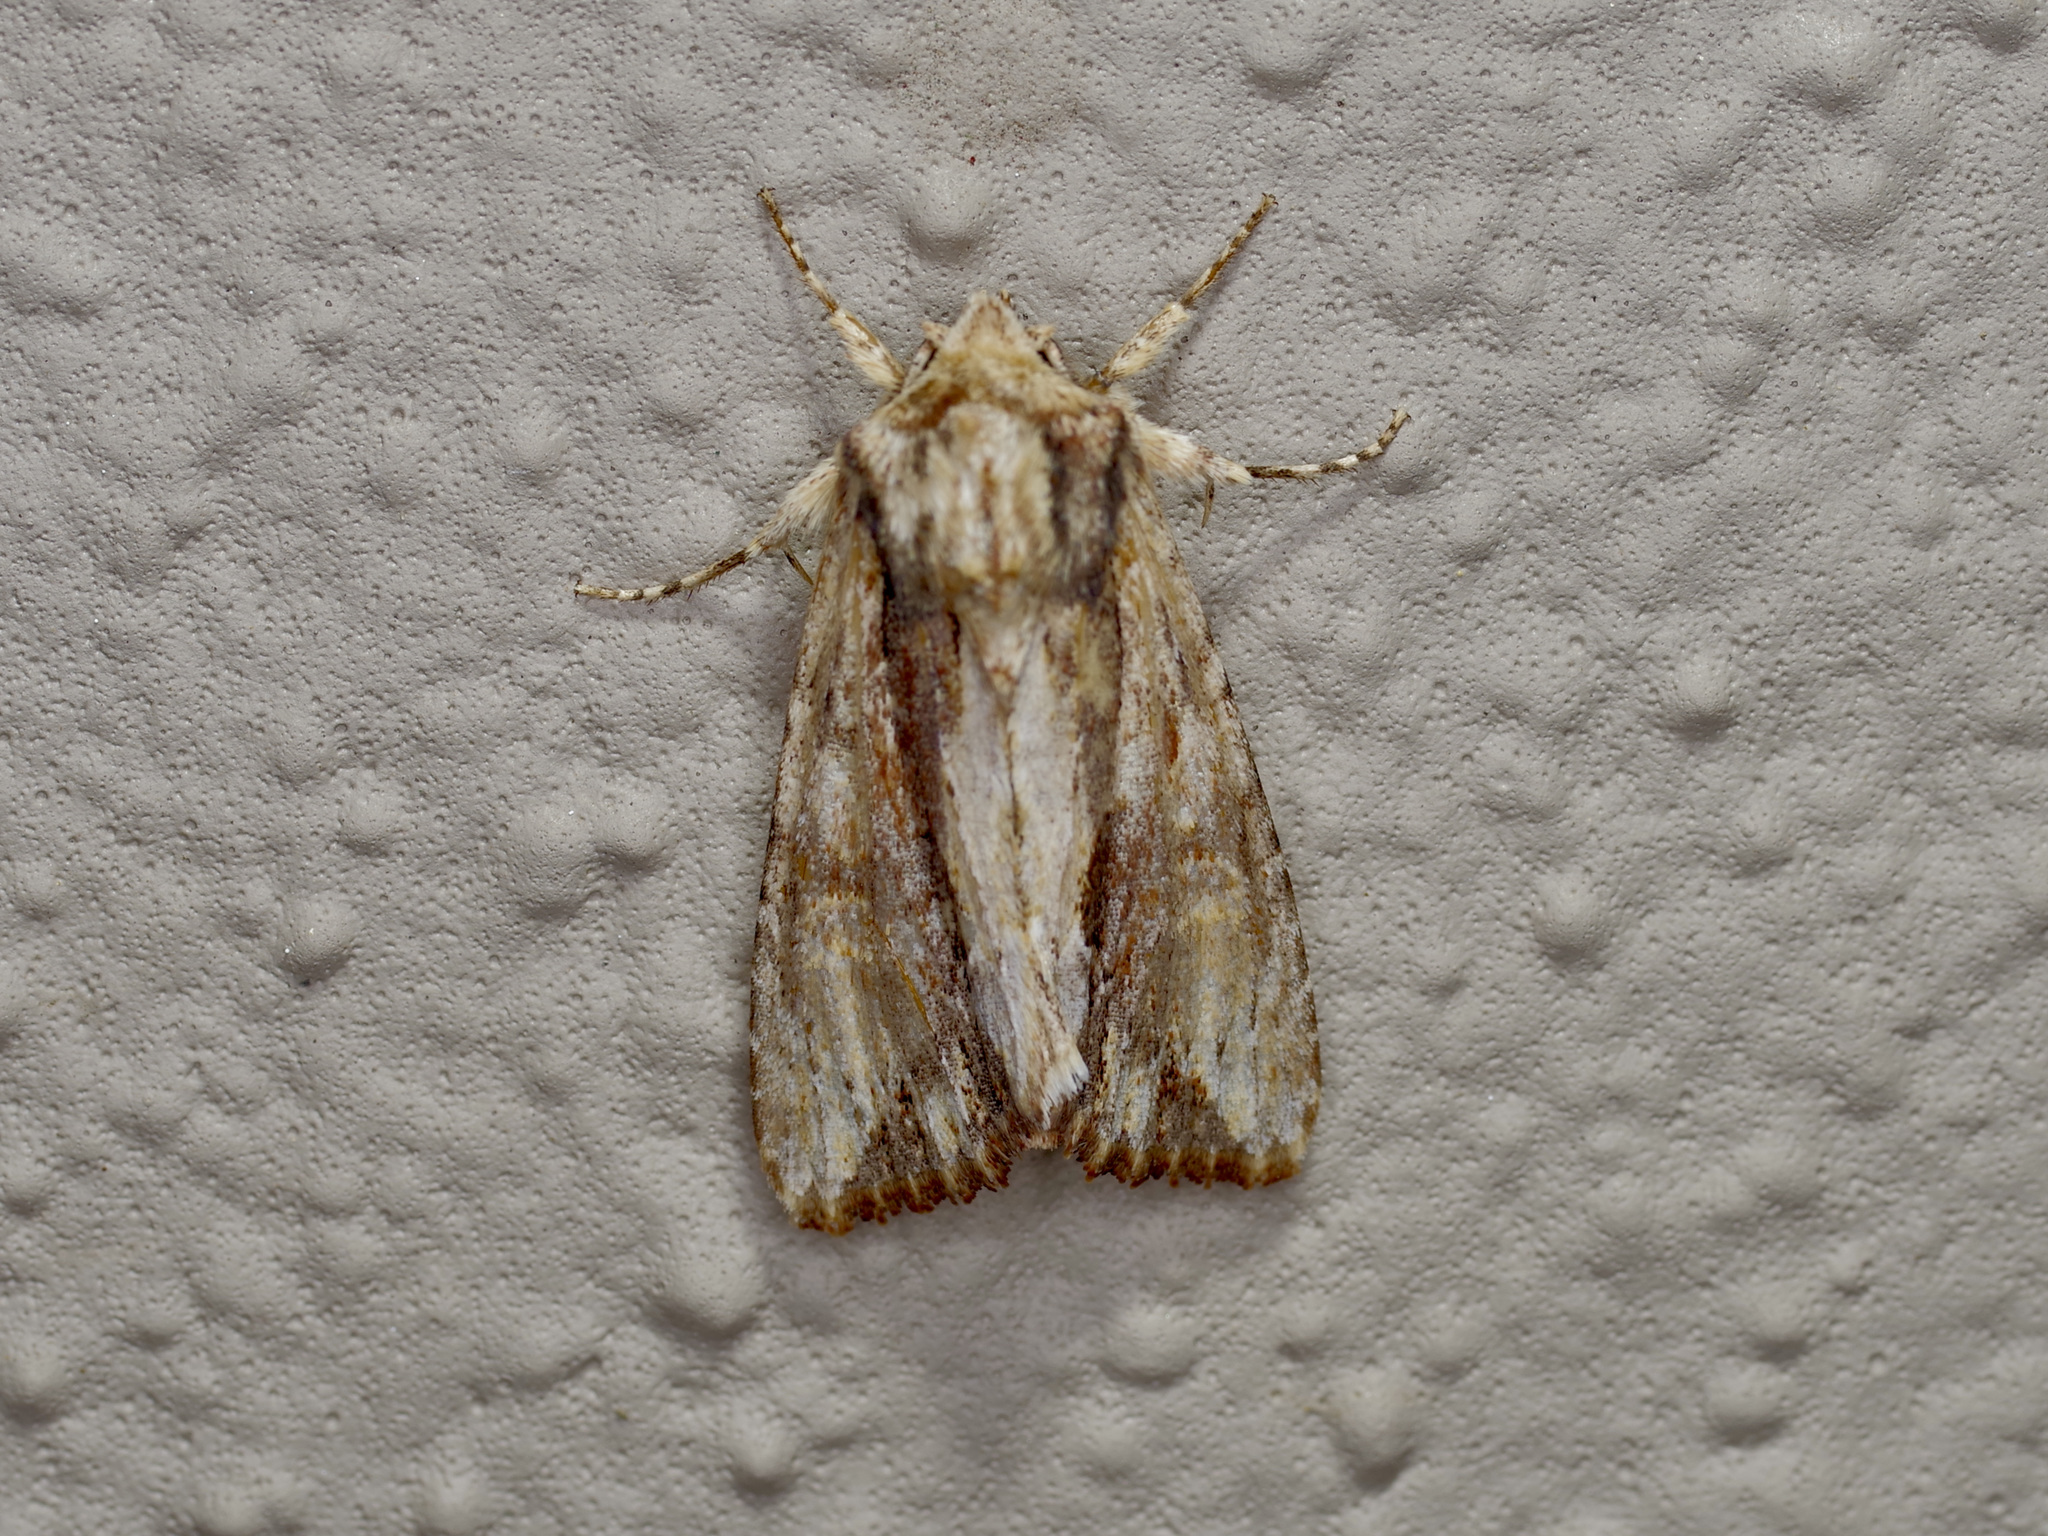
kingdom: Animalia
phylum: Arthropoda
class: Insecta
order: Lepidoptera
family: Noctuidae
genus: Achatia
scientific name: Achatia mucens
